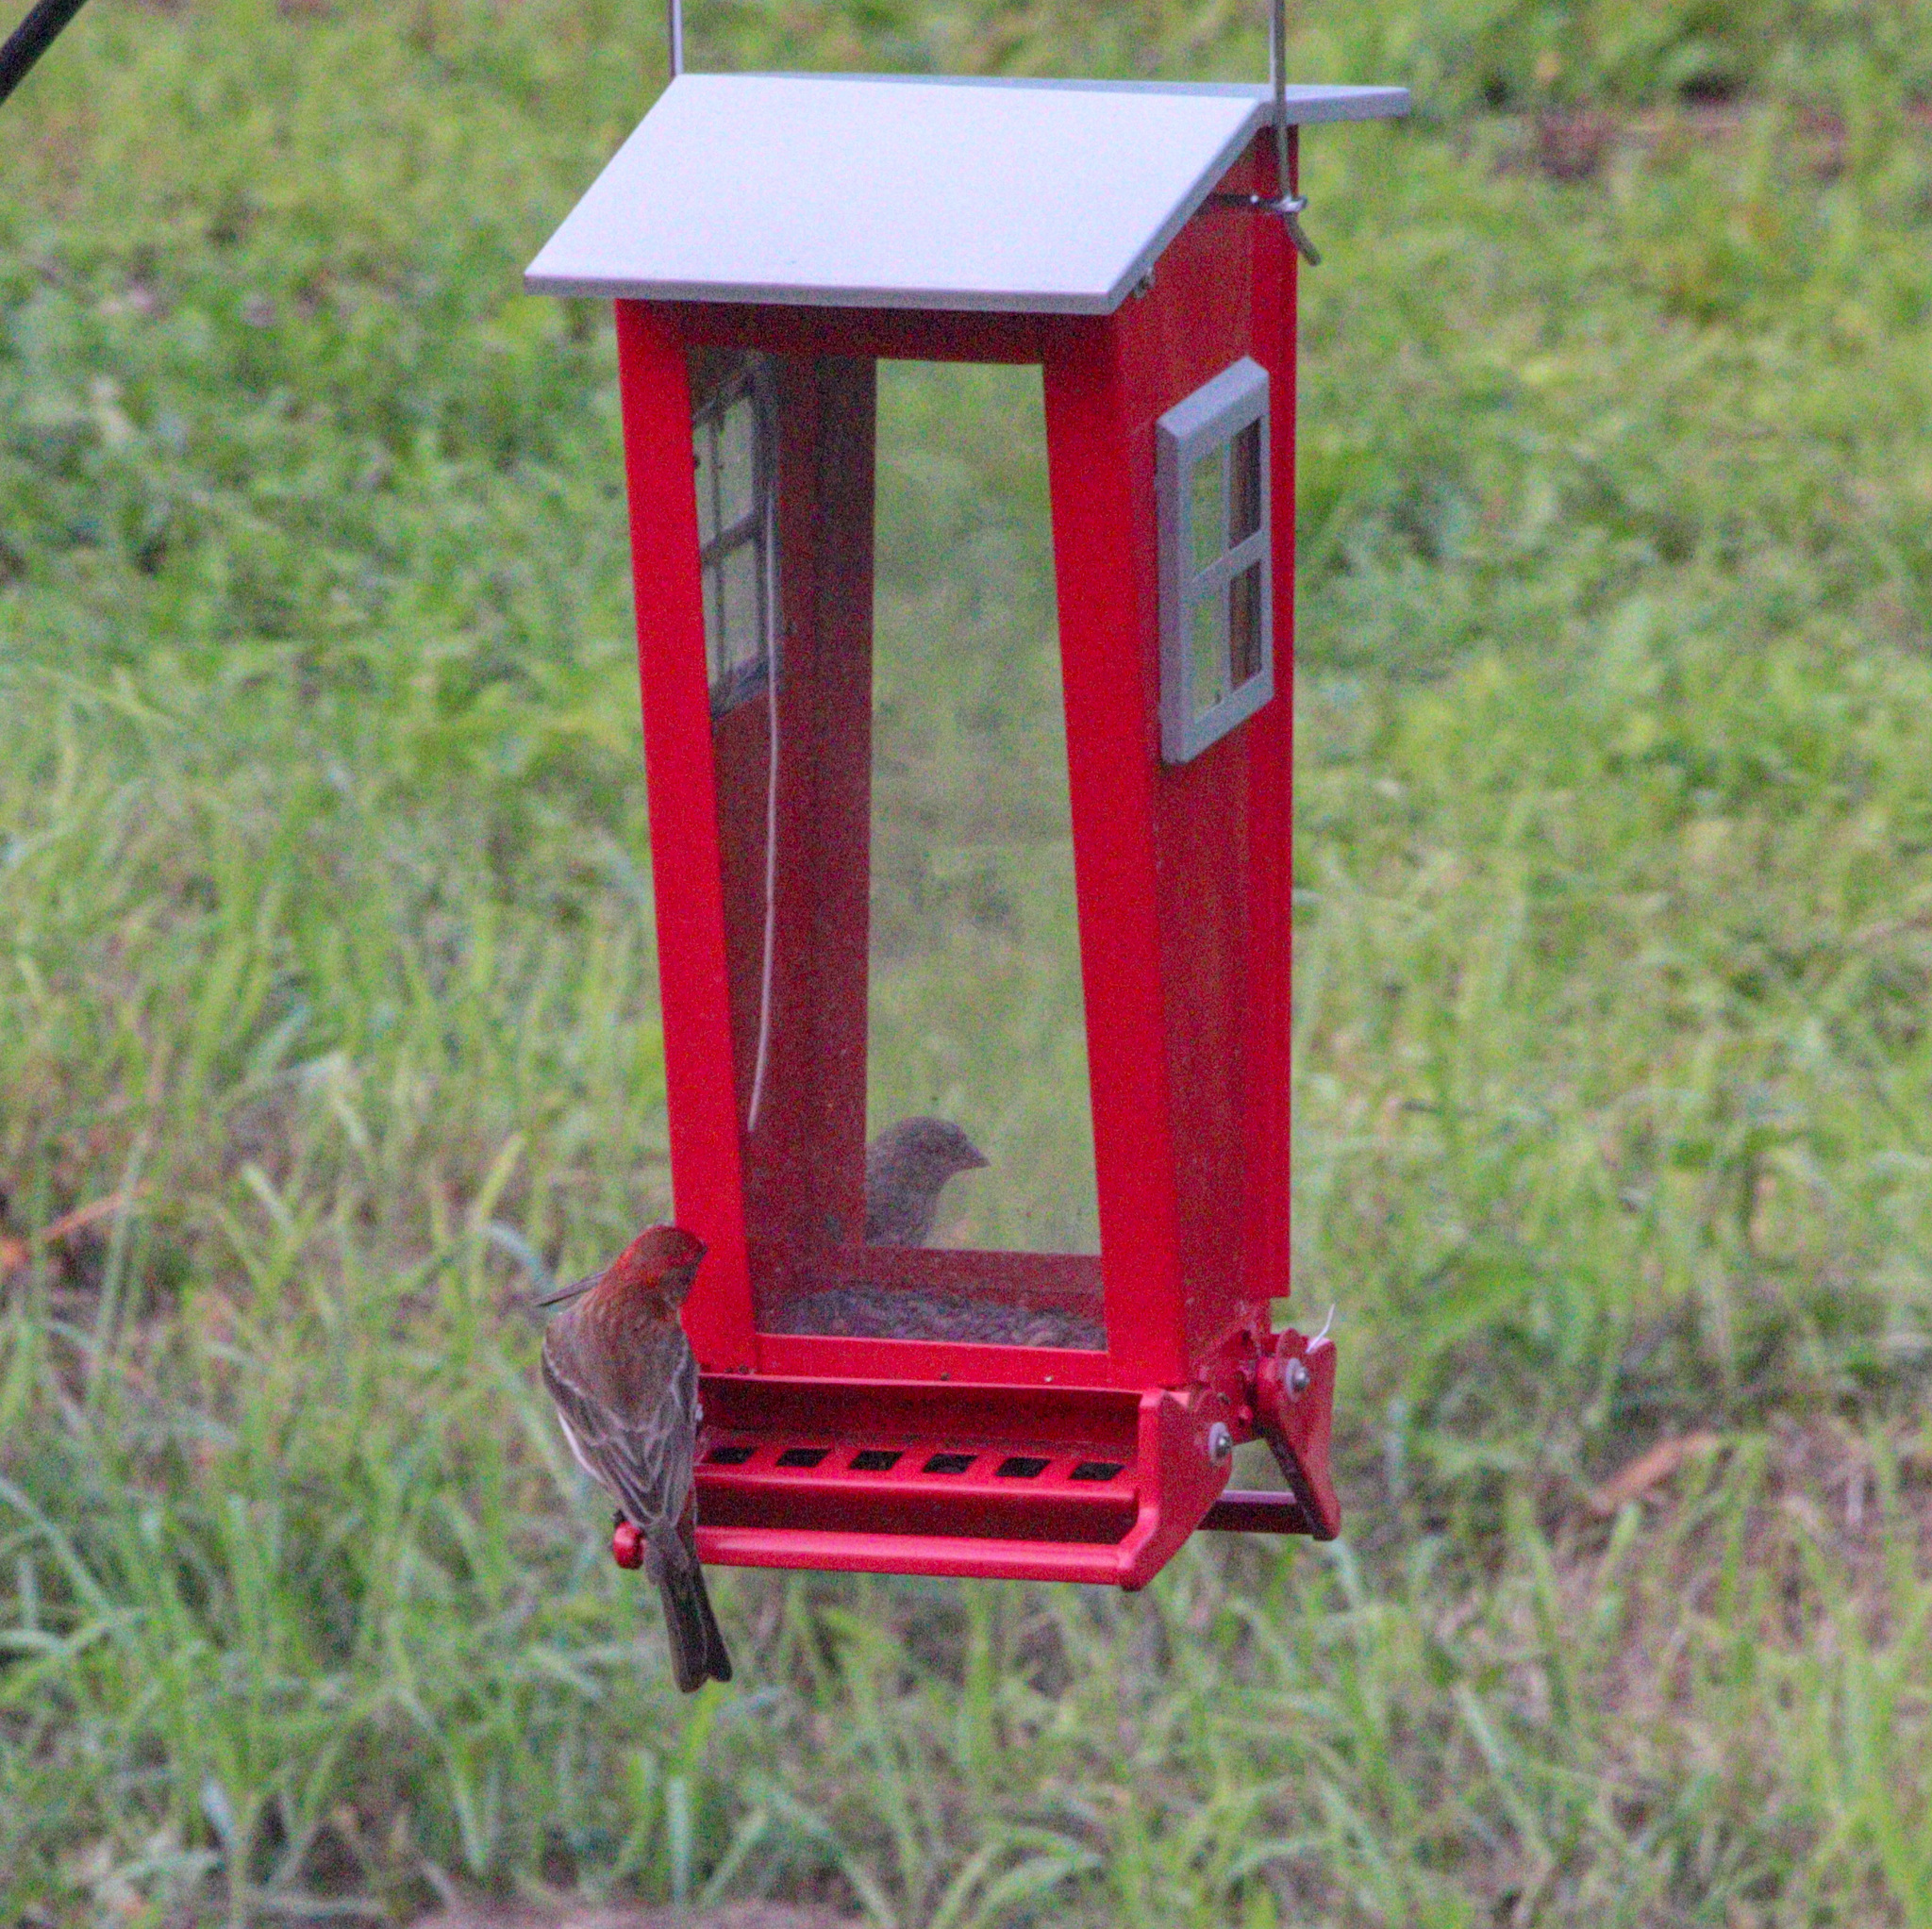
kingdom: Animalia
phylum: Chordata
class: Aves
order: Passeriformes
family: Fringillidae
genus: Haemorhous
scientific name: Haemorhous mexicanus
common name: House finch
